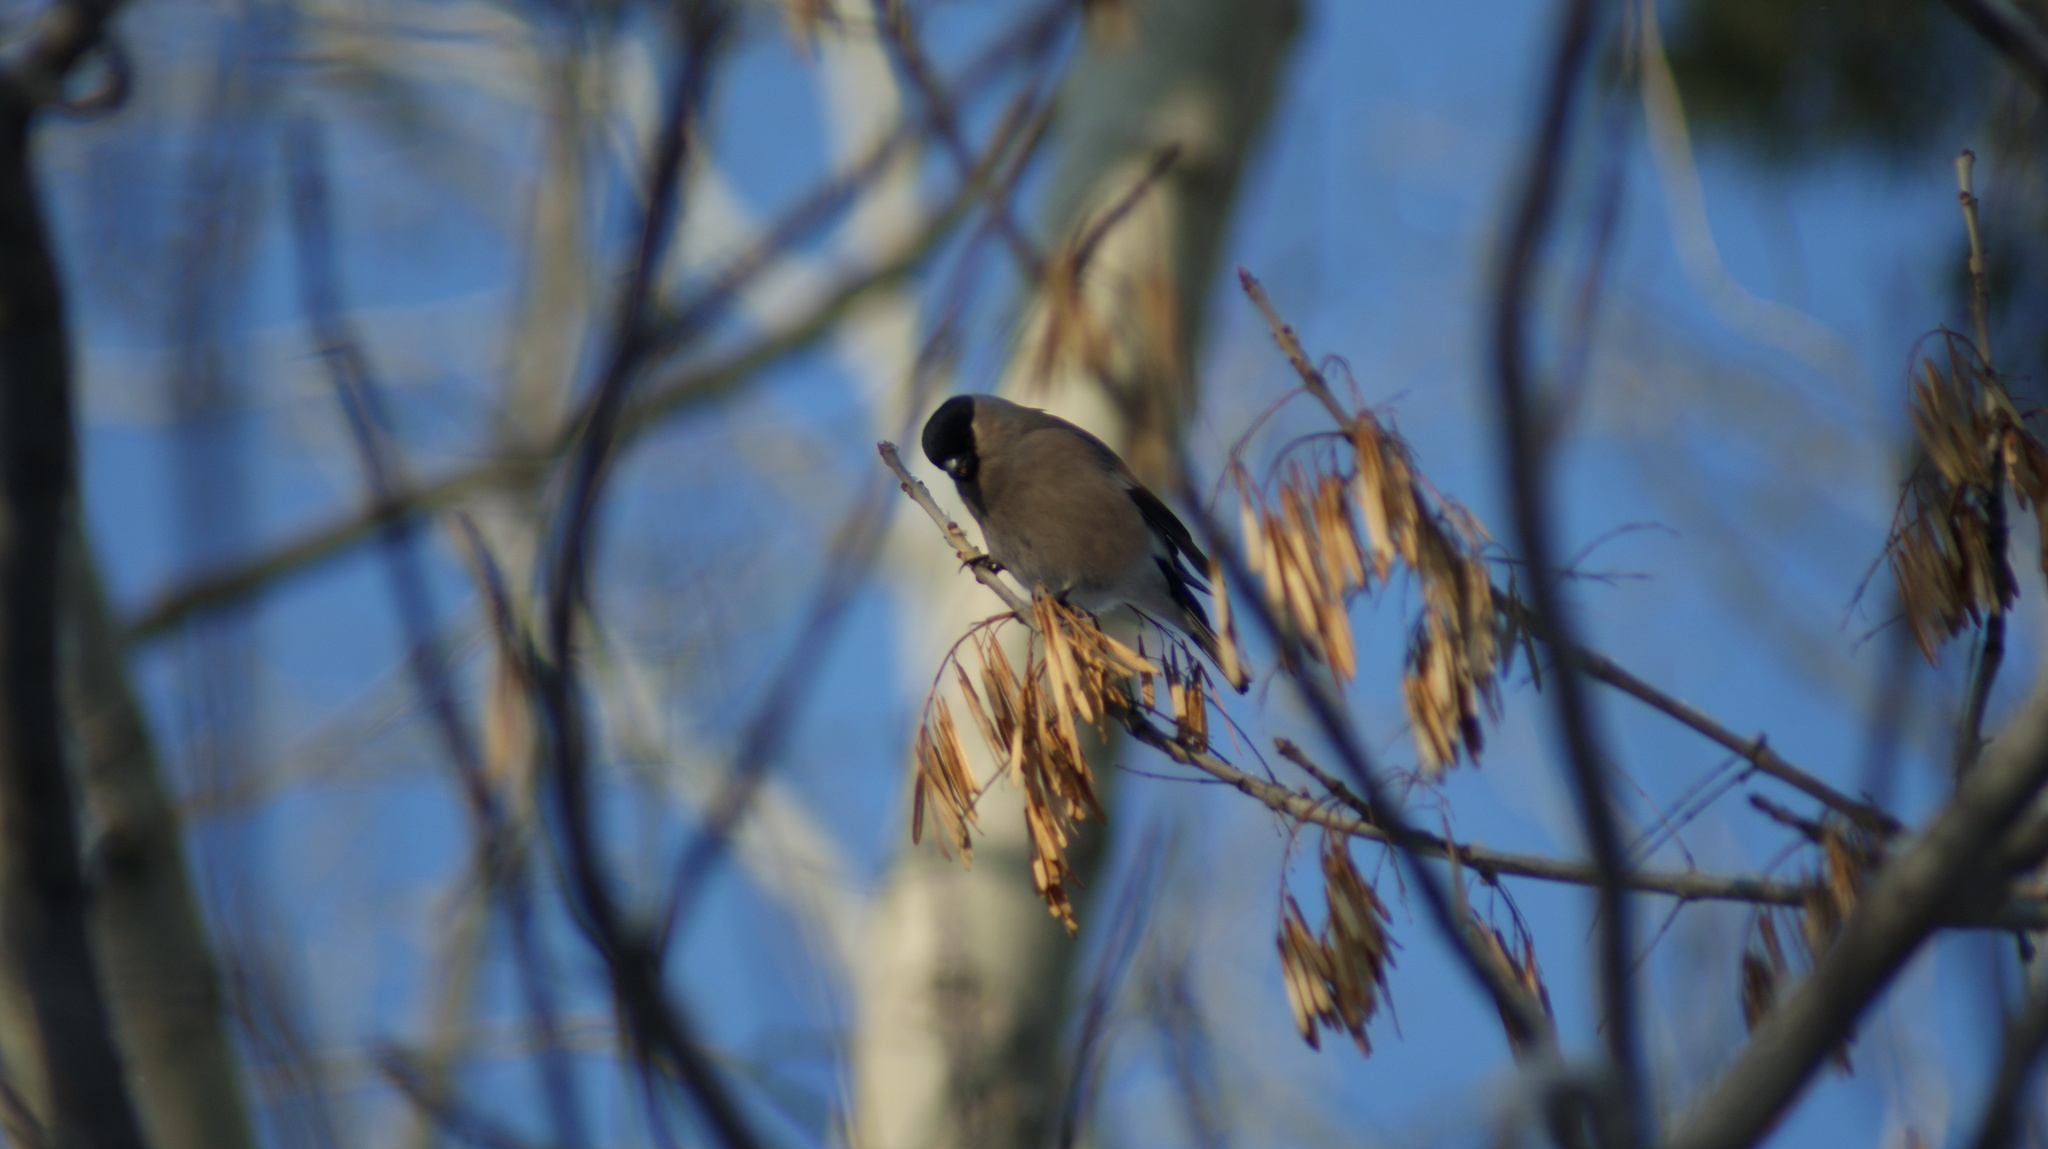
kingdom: Animalia
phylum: Chordata
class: Aves
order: Passeriformes
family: Fringillidae
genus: Pyrrhula
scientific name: Pyrrhula pyrrhula
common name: Eurasian bullfinch
